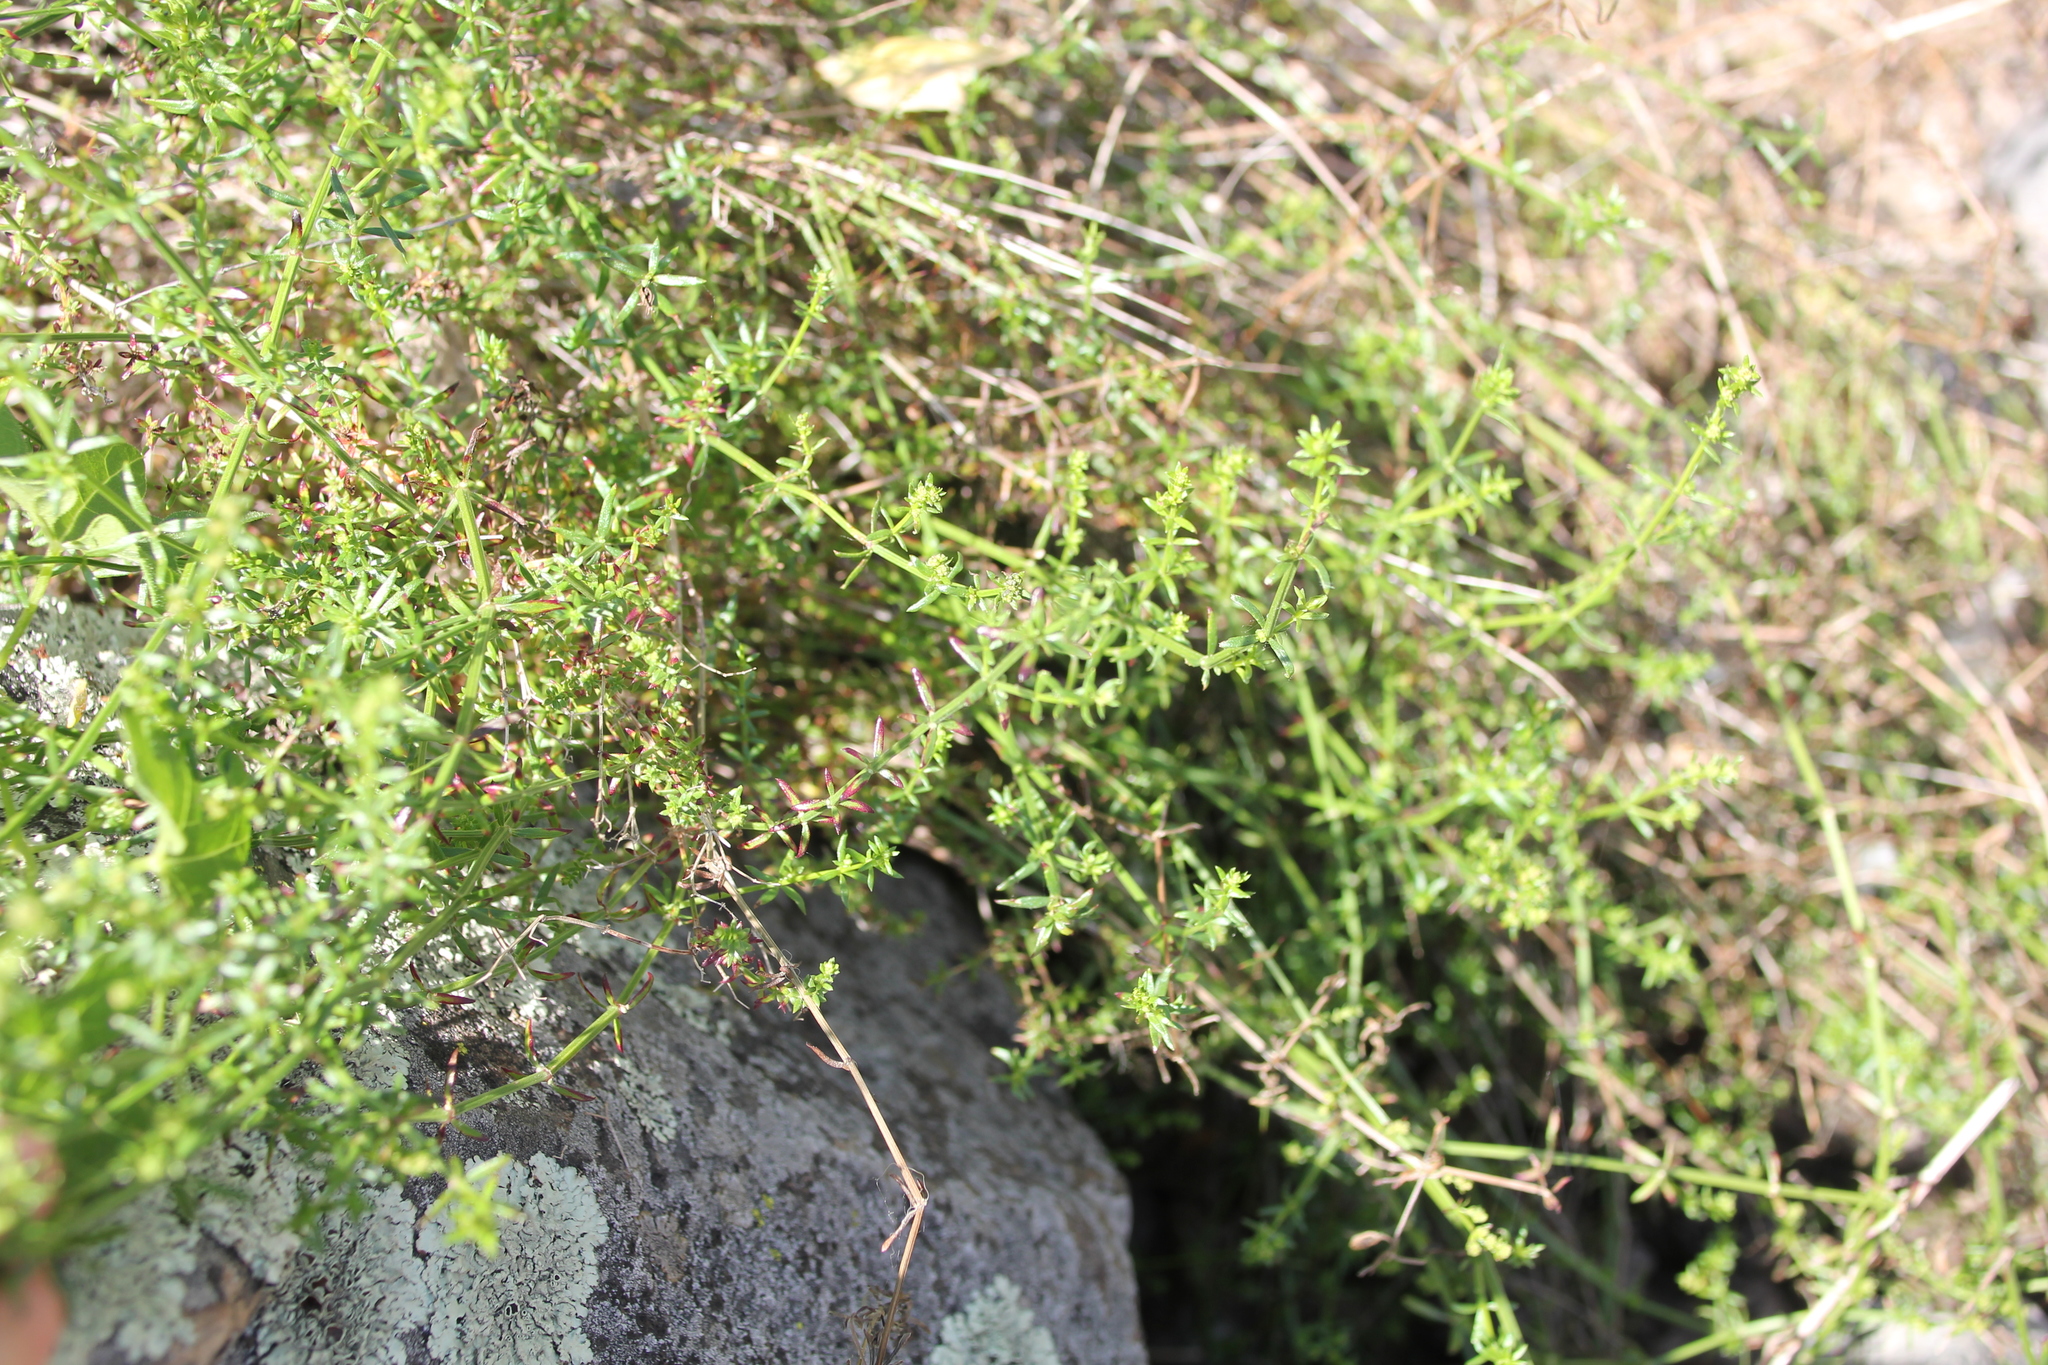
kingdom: Plantae
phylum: Tracheophyta
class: Magnoliopsida
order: Gentianales
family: Rubiaceae
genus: Galium
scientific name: Galium angustifolium
